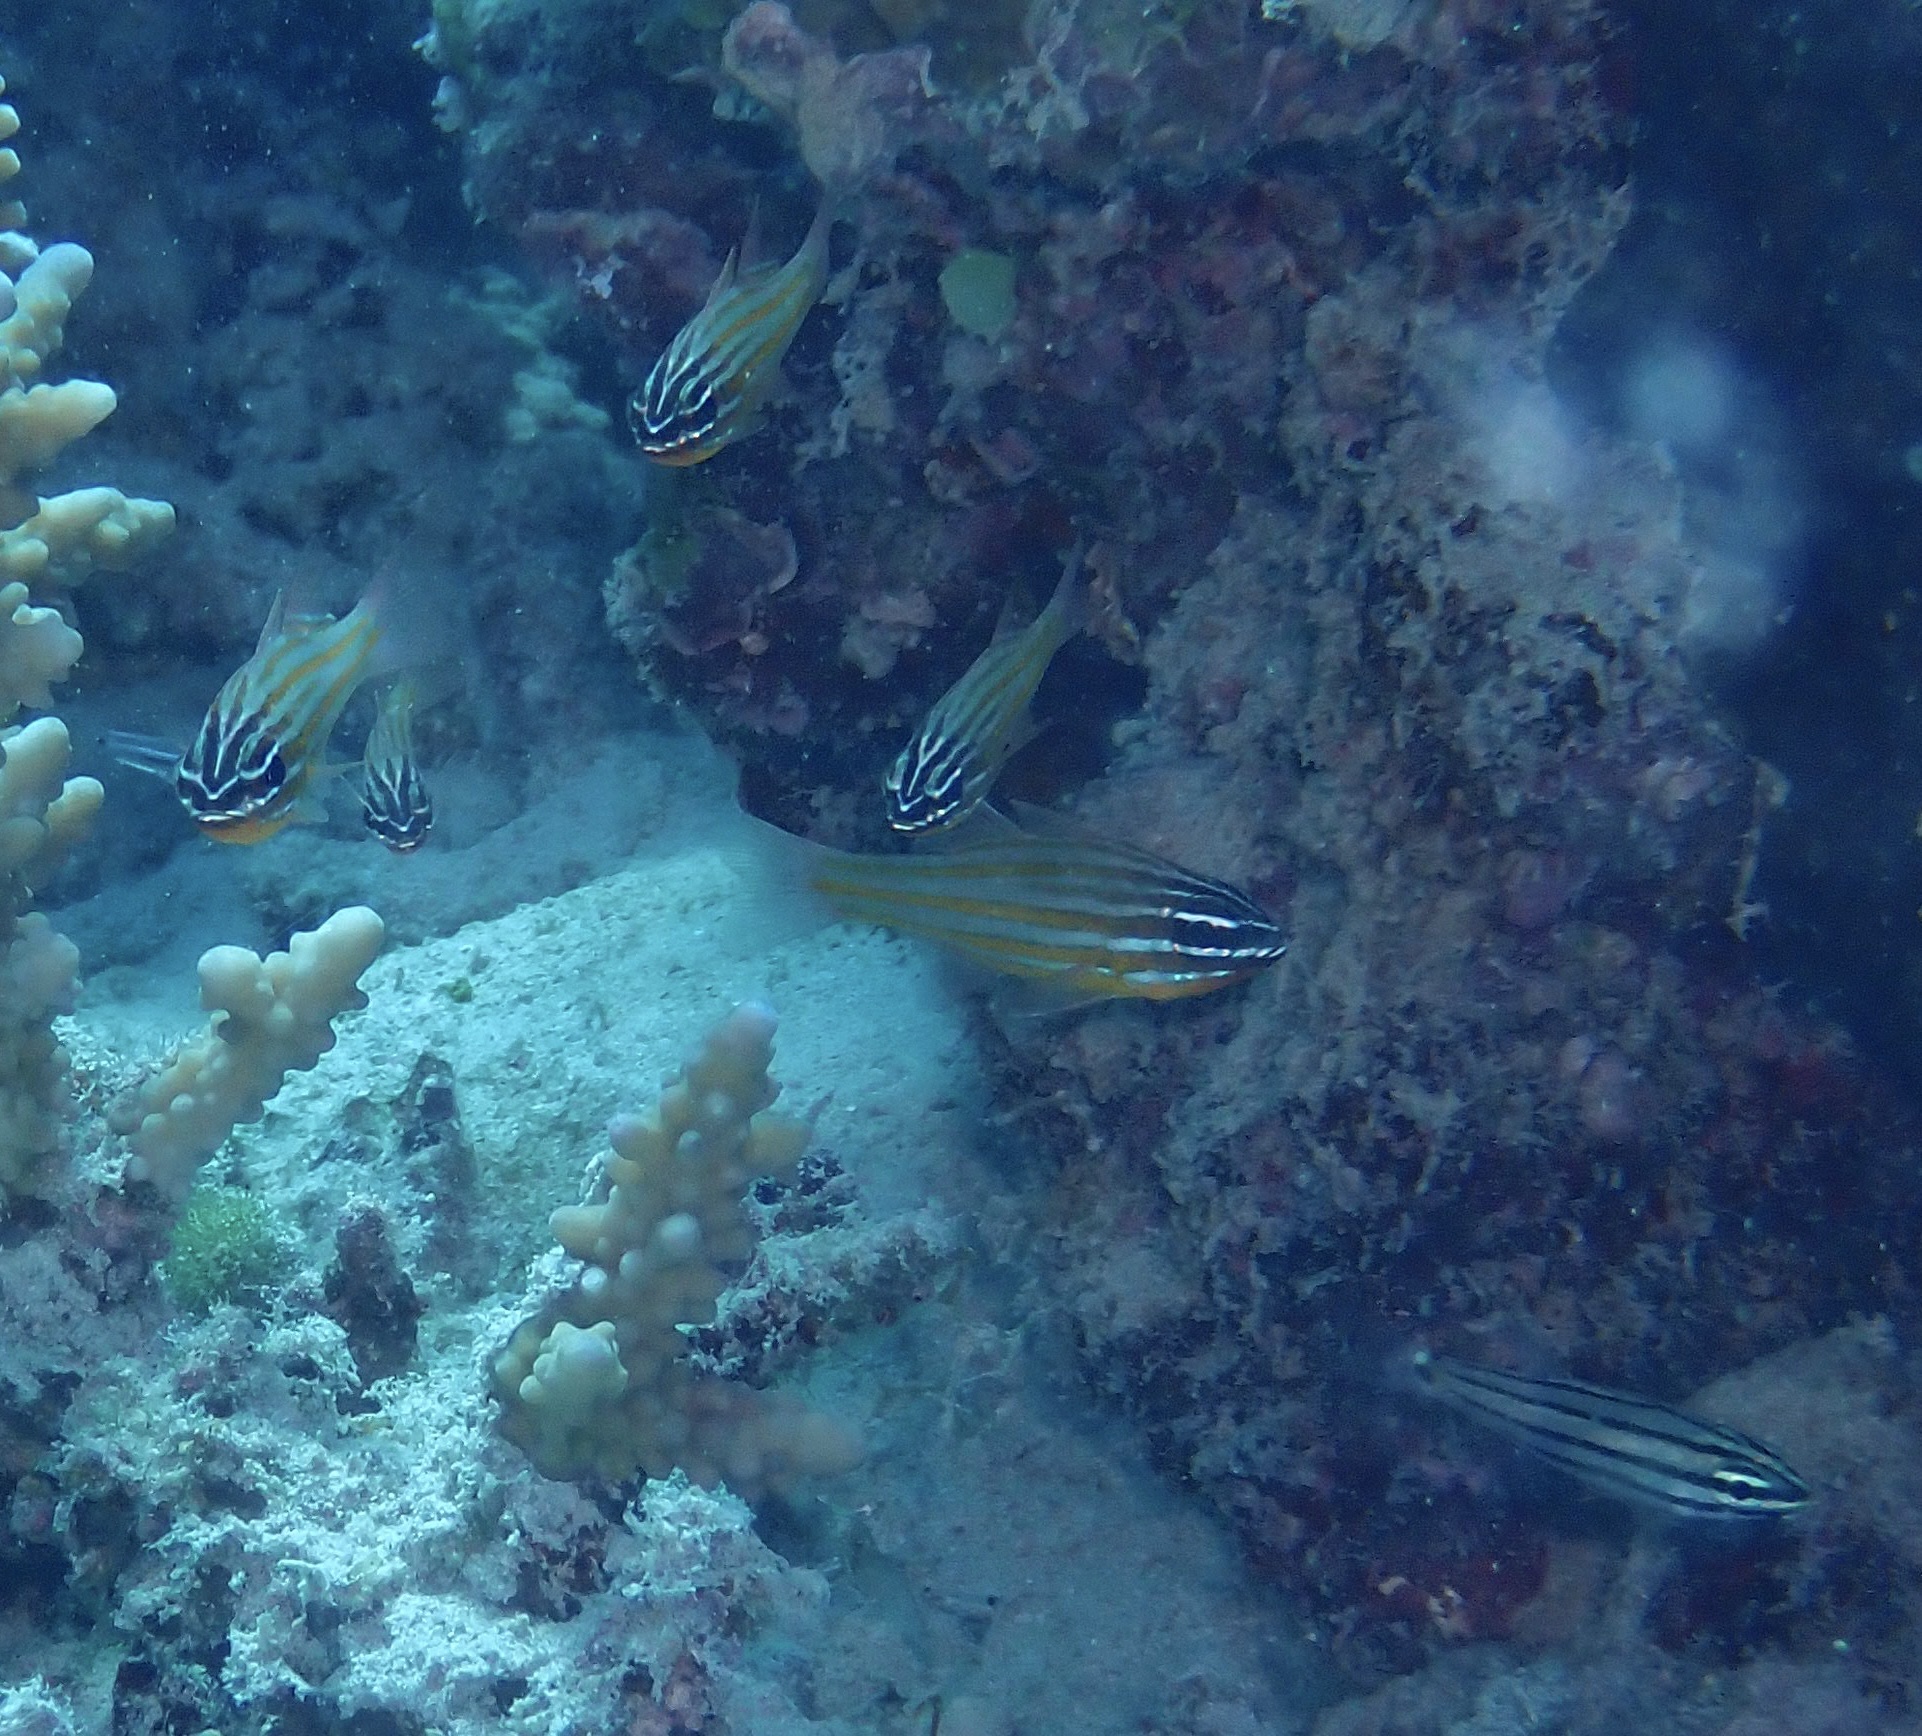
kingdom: Animalia
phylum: Chordata
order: Perciformes
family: Apogonidae
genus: Ostorhinchus
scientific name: Ostorhinchus cyanosoma
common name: Yellow-striped cardinalfish
